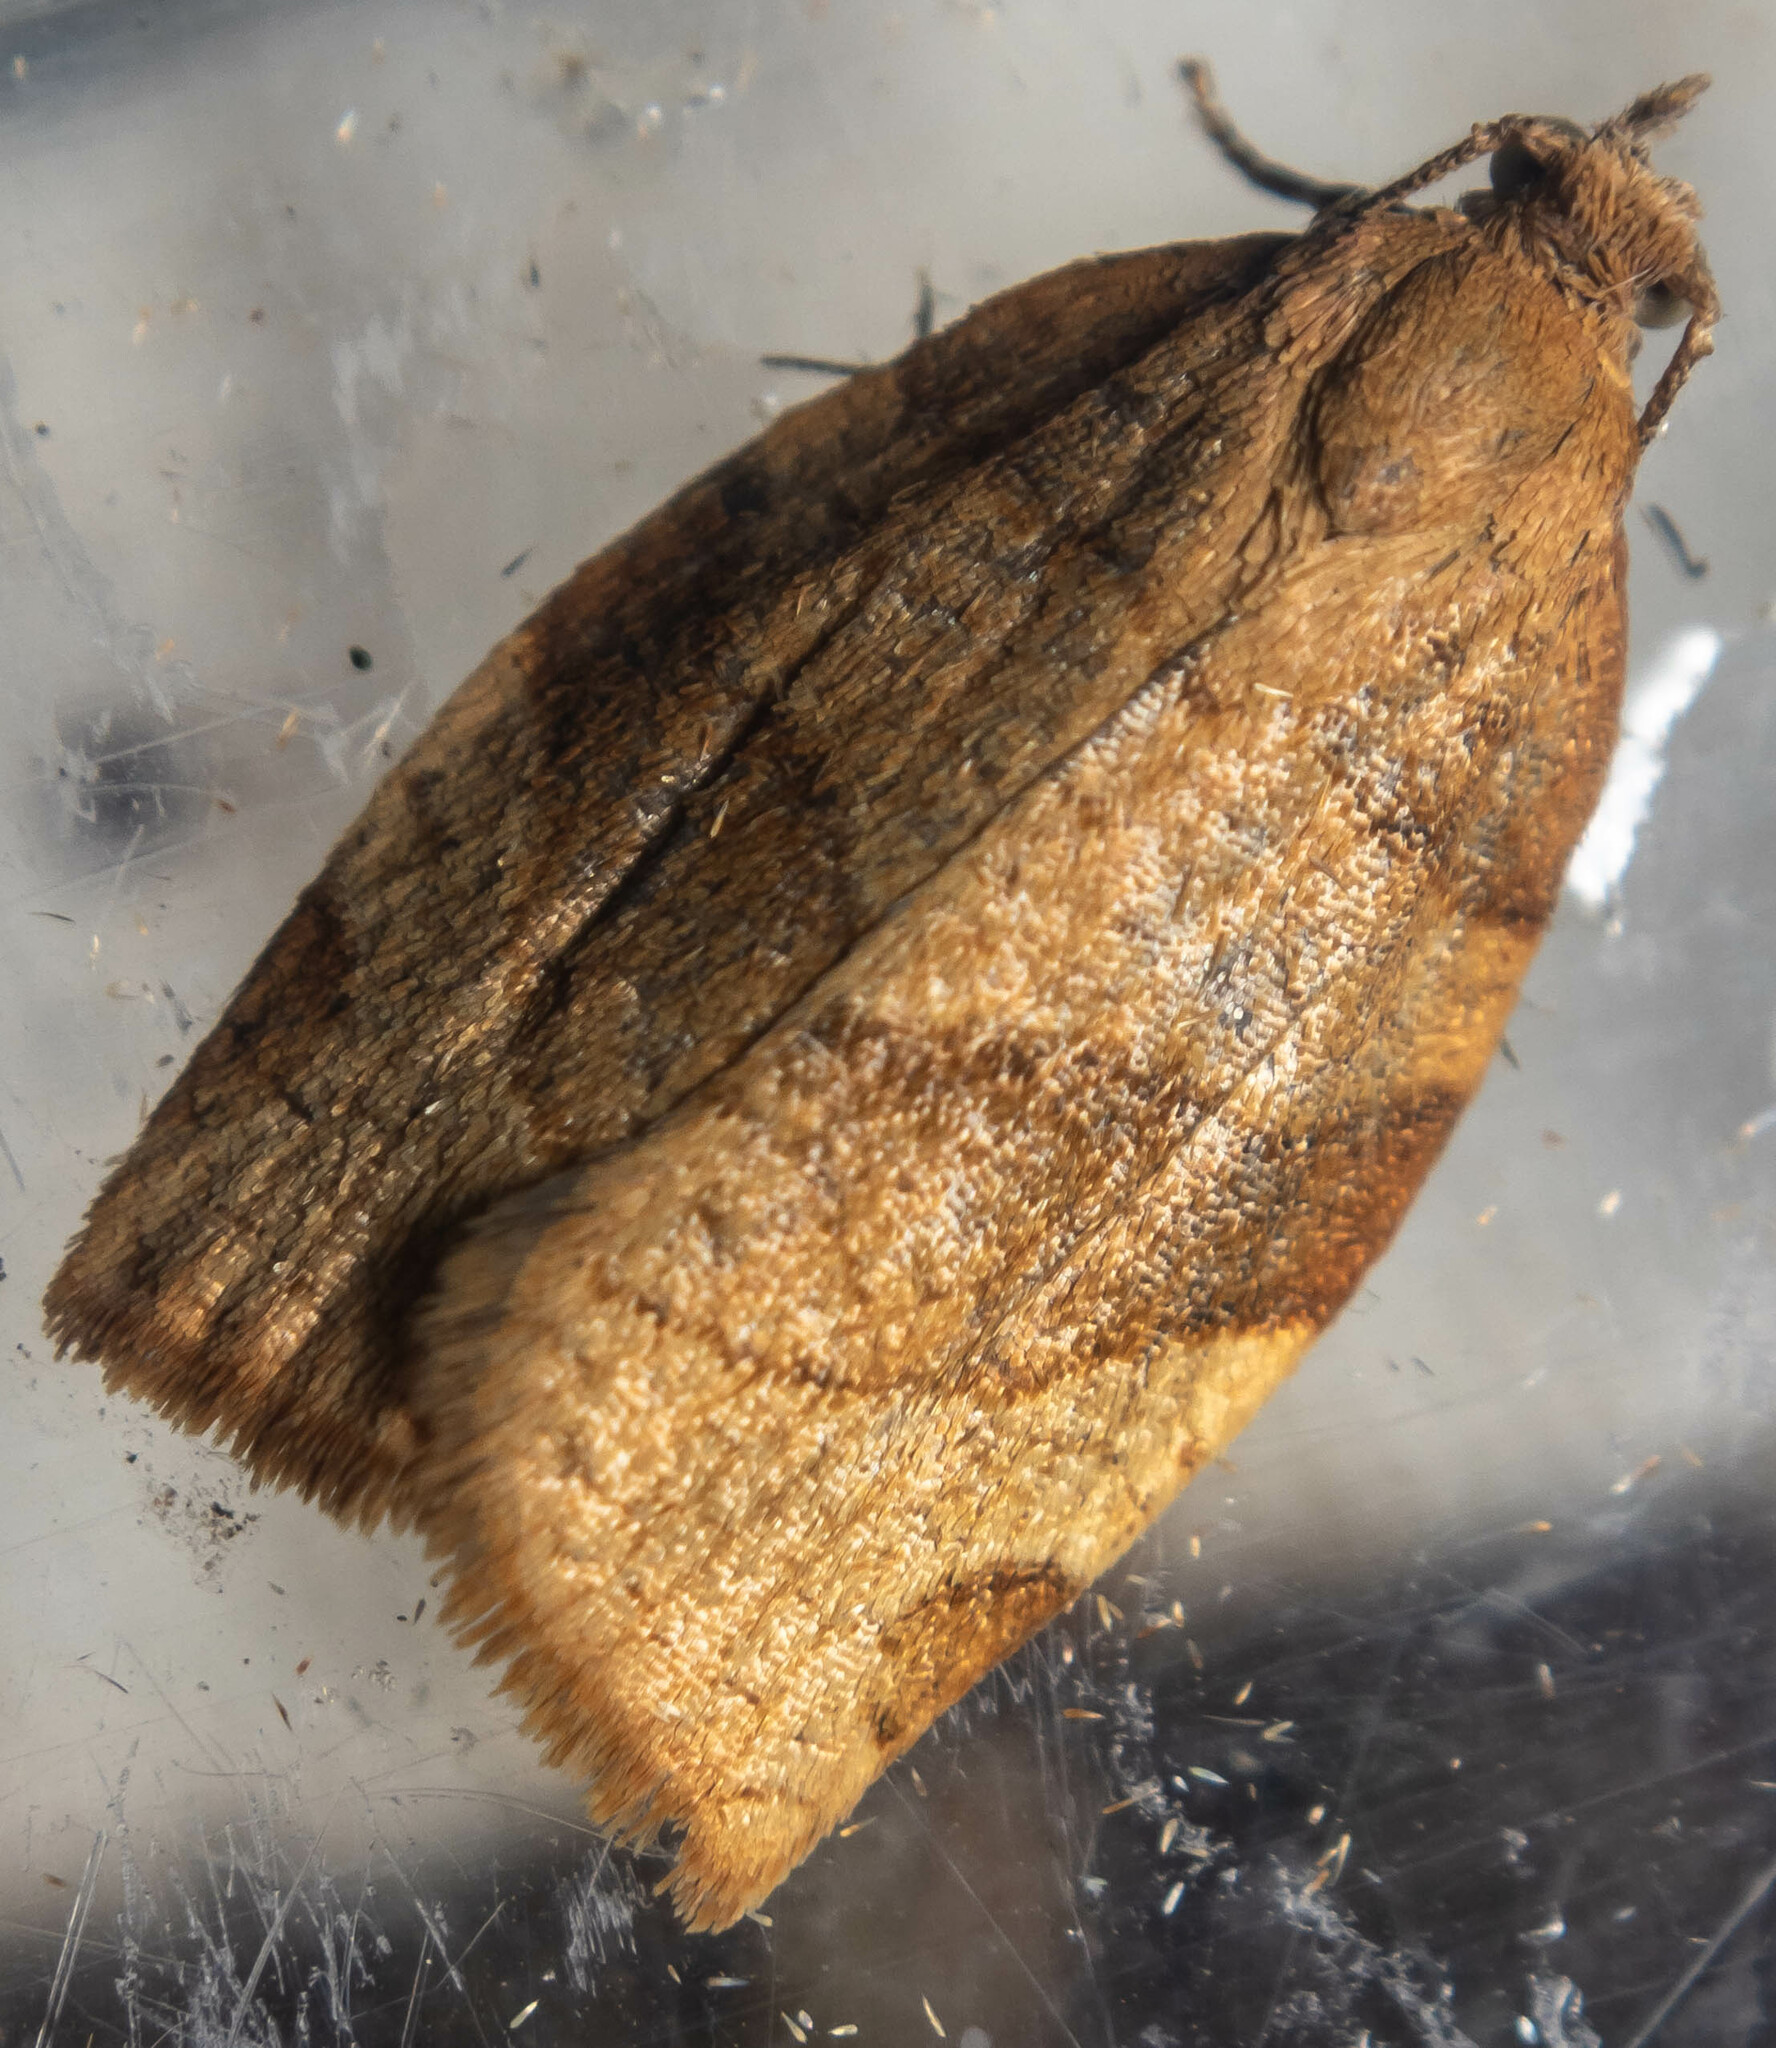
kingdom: Animalia
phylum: Arthropoda
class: Insecta
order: Lepidoptera
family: Tortricidae
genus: Pandemis
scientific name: Pandemis cerasana
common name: Barred fruit-tree tortrix
